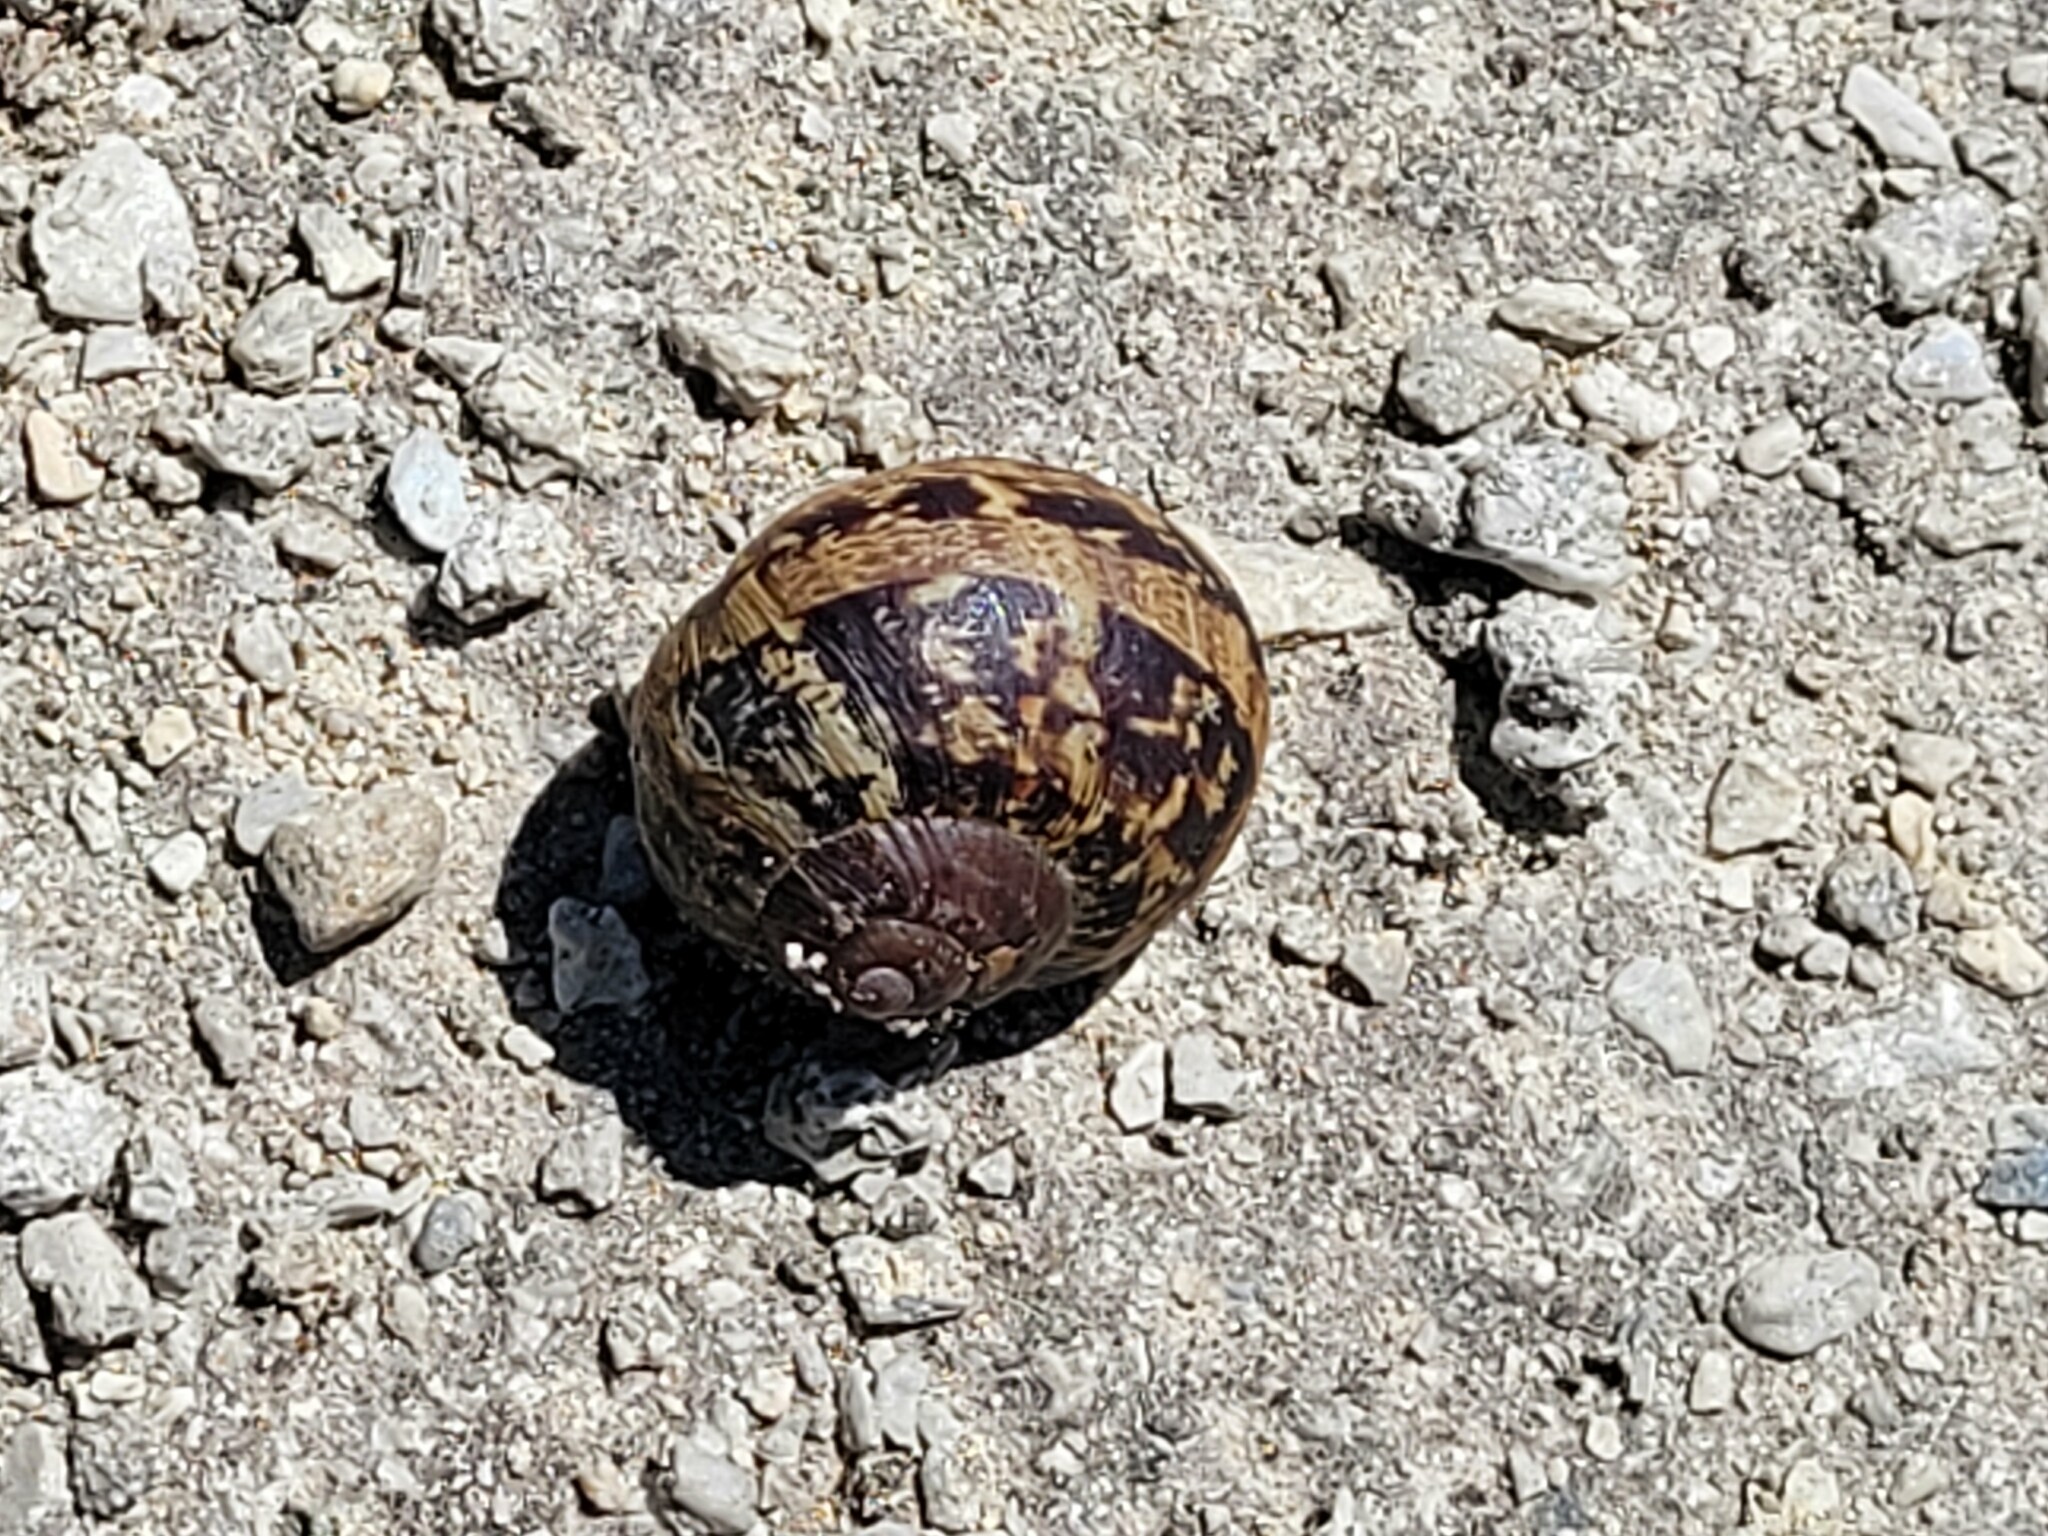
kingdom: Animalia
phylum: Mollusca
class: Gastropoda
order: Stylommatophora
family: Helicidae
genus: Cornu
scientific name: Cornu aspersum
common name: Brown garden snail
